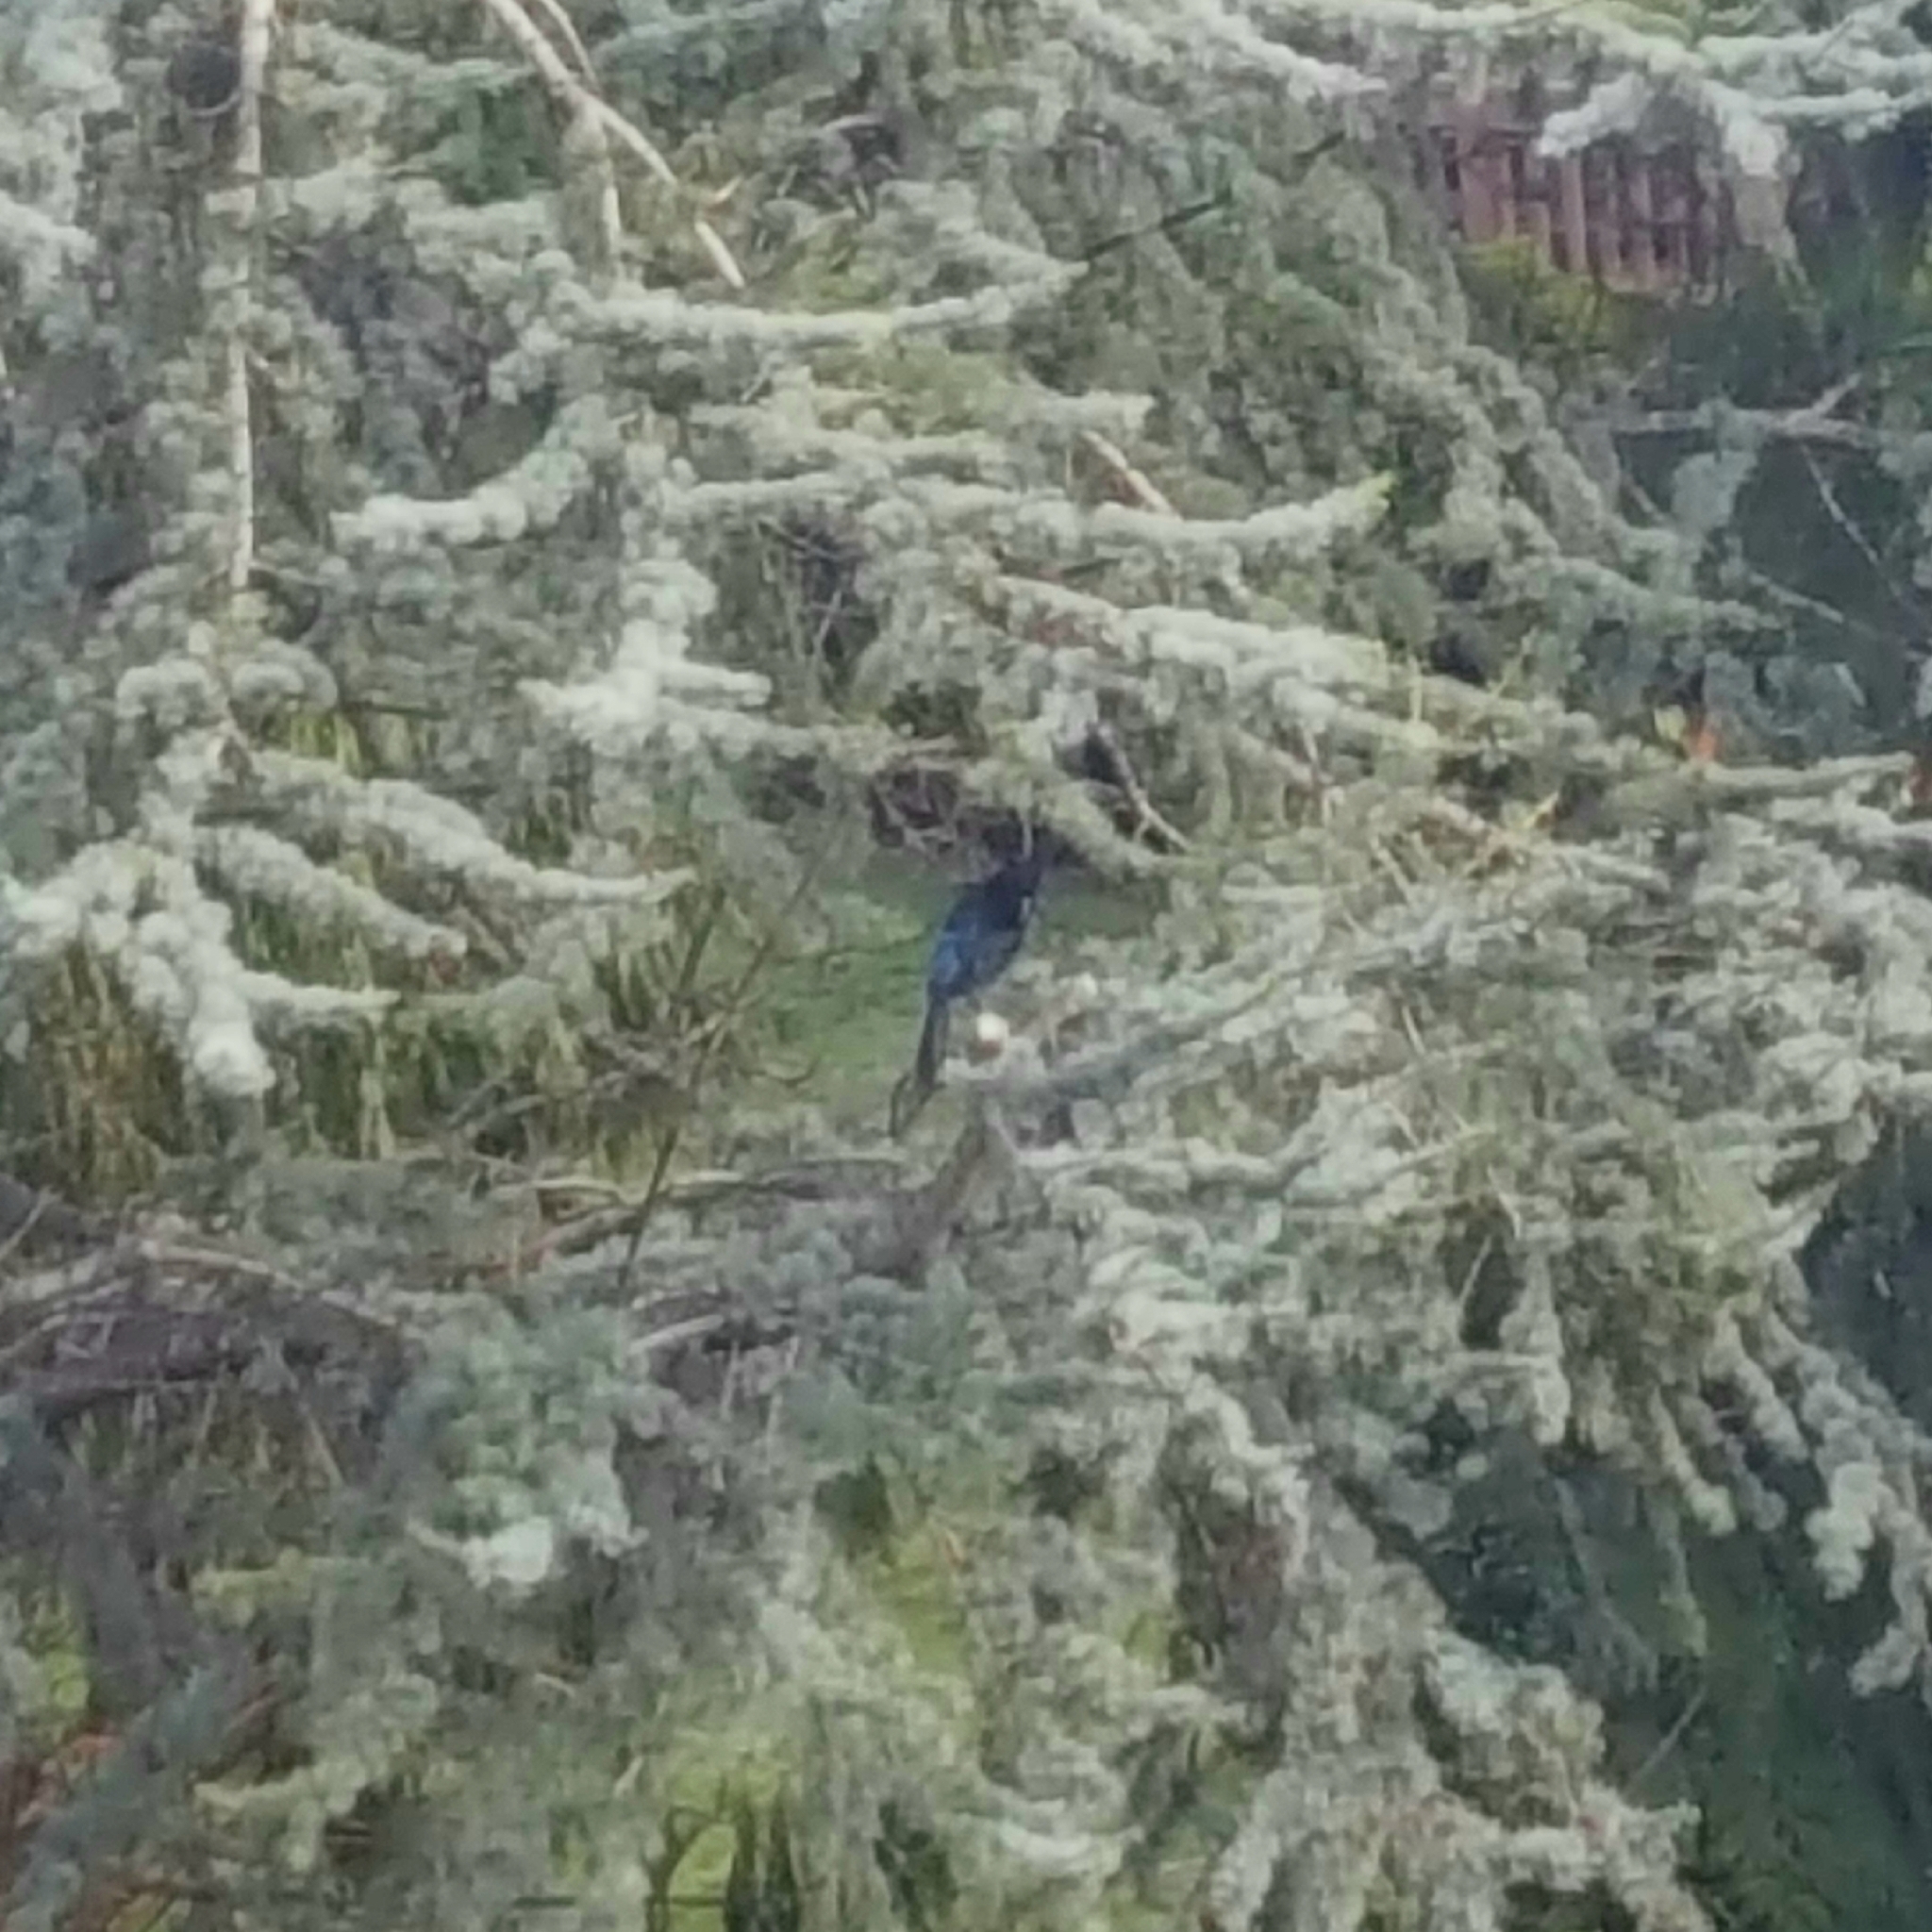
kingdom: Animalia
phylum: Chordata
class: Aves
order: Passeriformes
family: Corvidae
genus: Cyanocitta
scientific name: Cyanocitta stelleri
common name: Steller's jay
